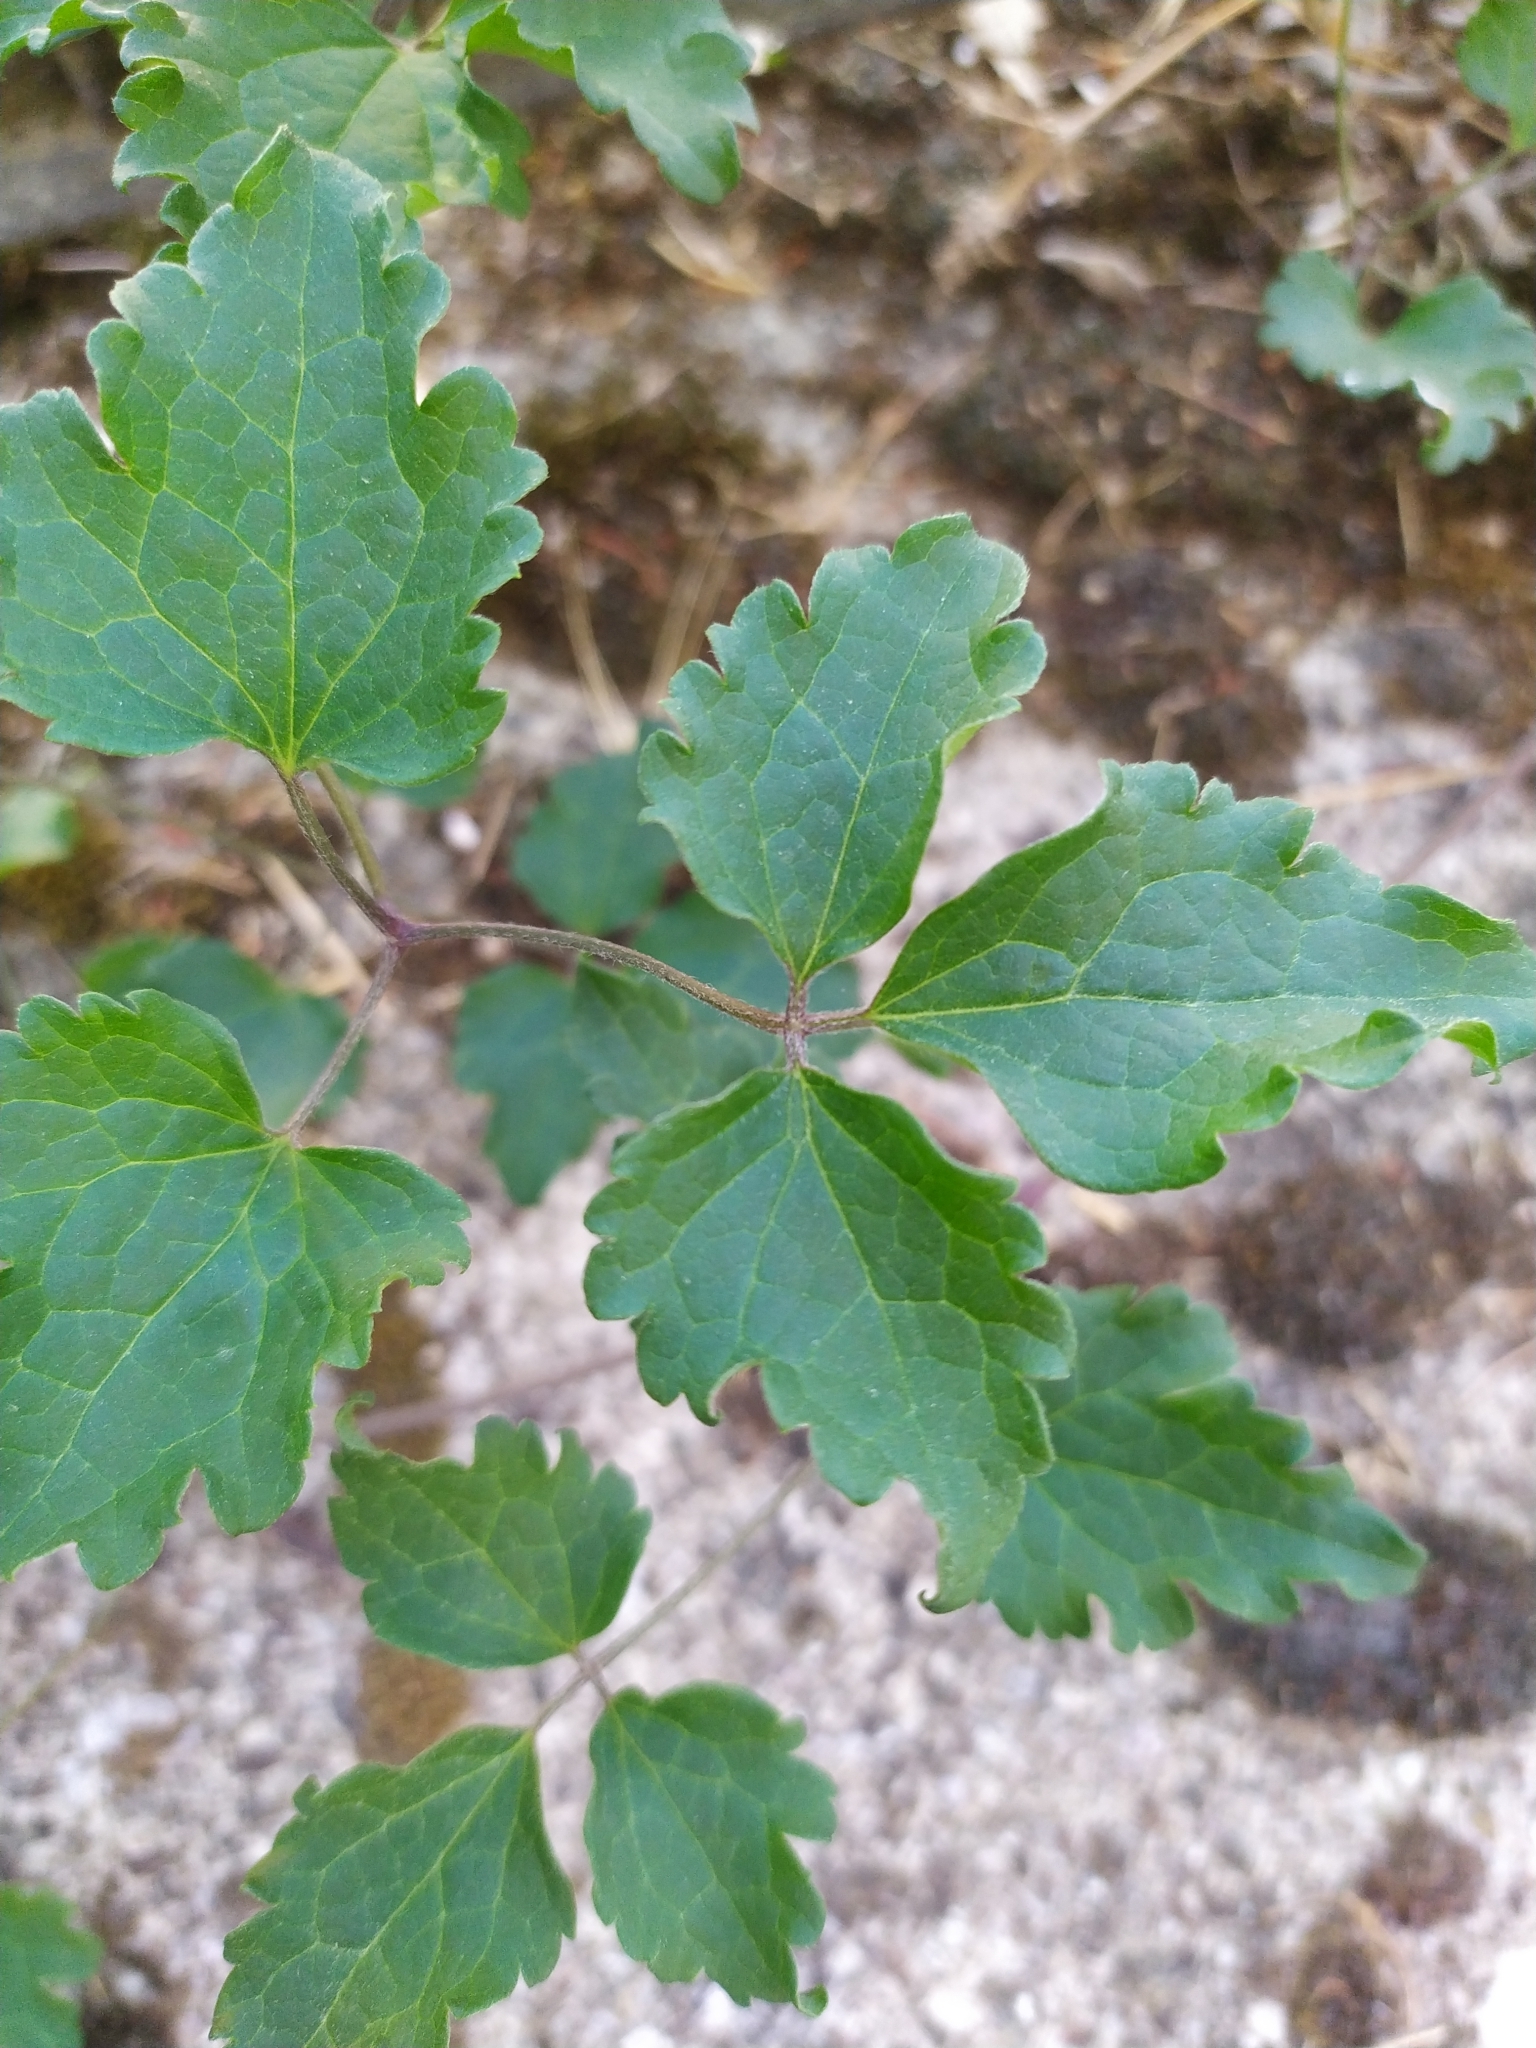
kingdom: Plantae
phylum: Tracheophyta
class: Magnoliopsida
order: Ranunculales
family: Ranunculaceae
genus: Clematis
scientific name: Clematis vitalba
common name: Evergreen clematis
